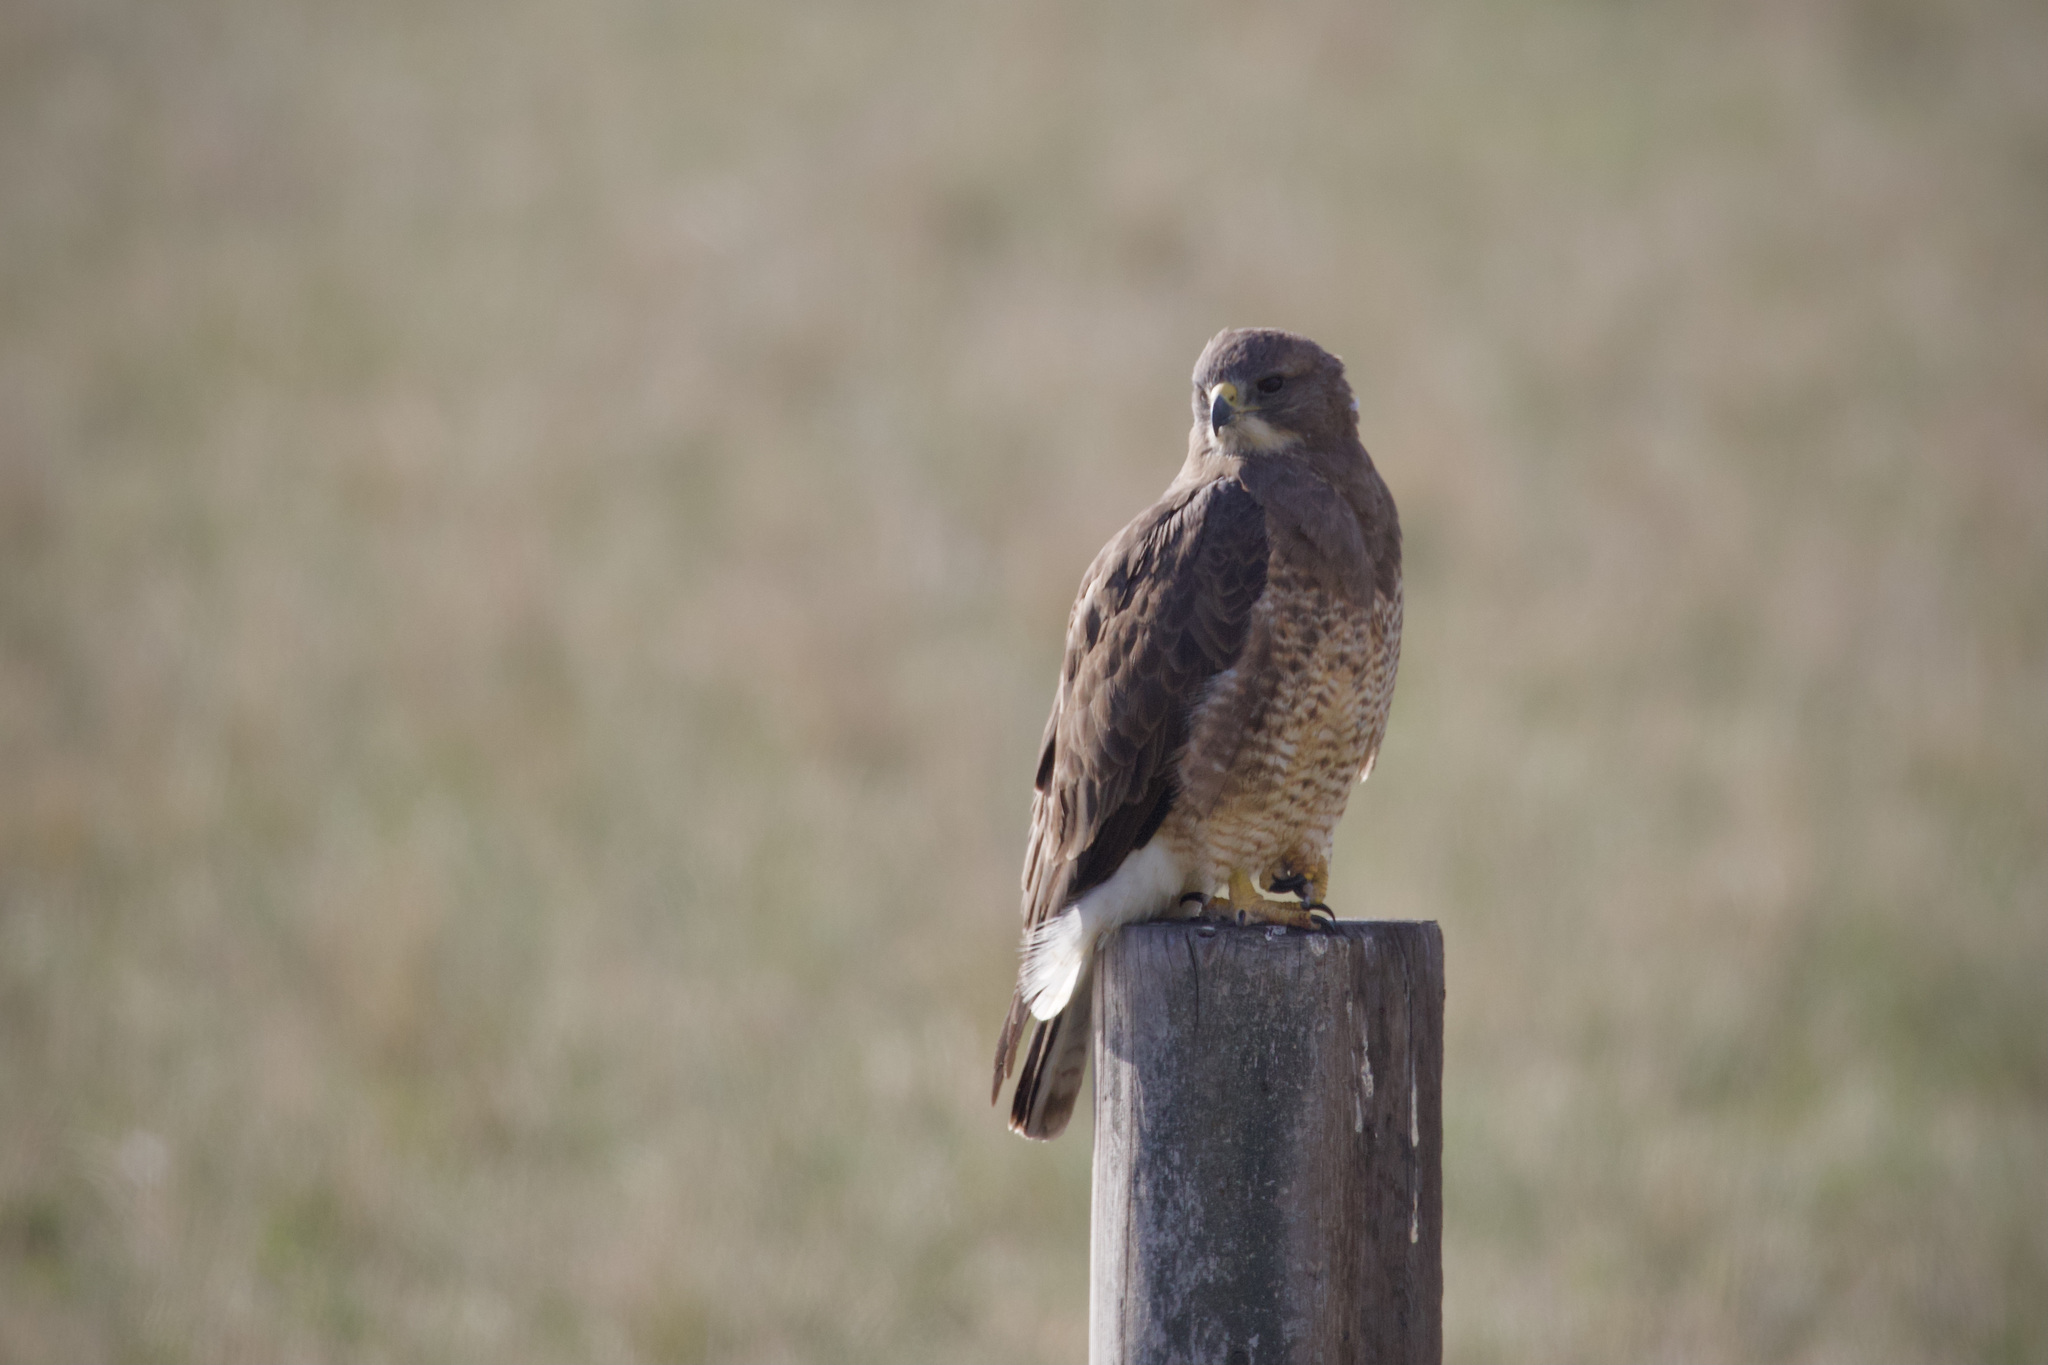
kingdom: Animalia
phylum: Chordata
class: Aves
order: Accipitriformes
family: Accipitridae
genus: Buteo
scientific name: Buteo swainsoni
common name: Swainson's hawk
